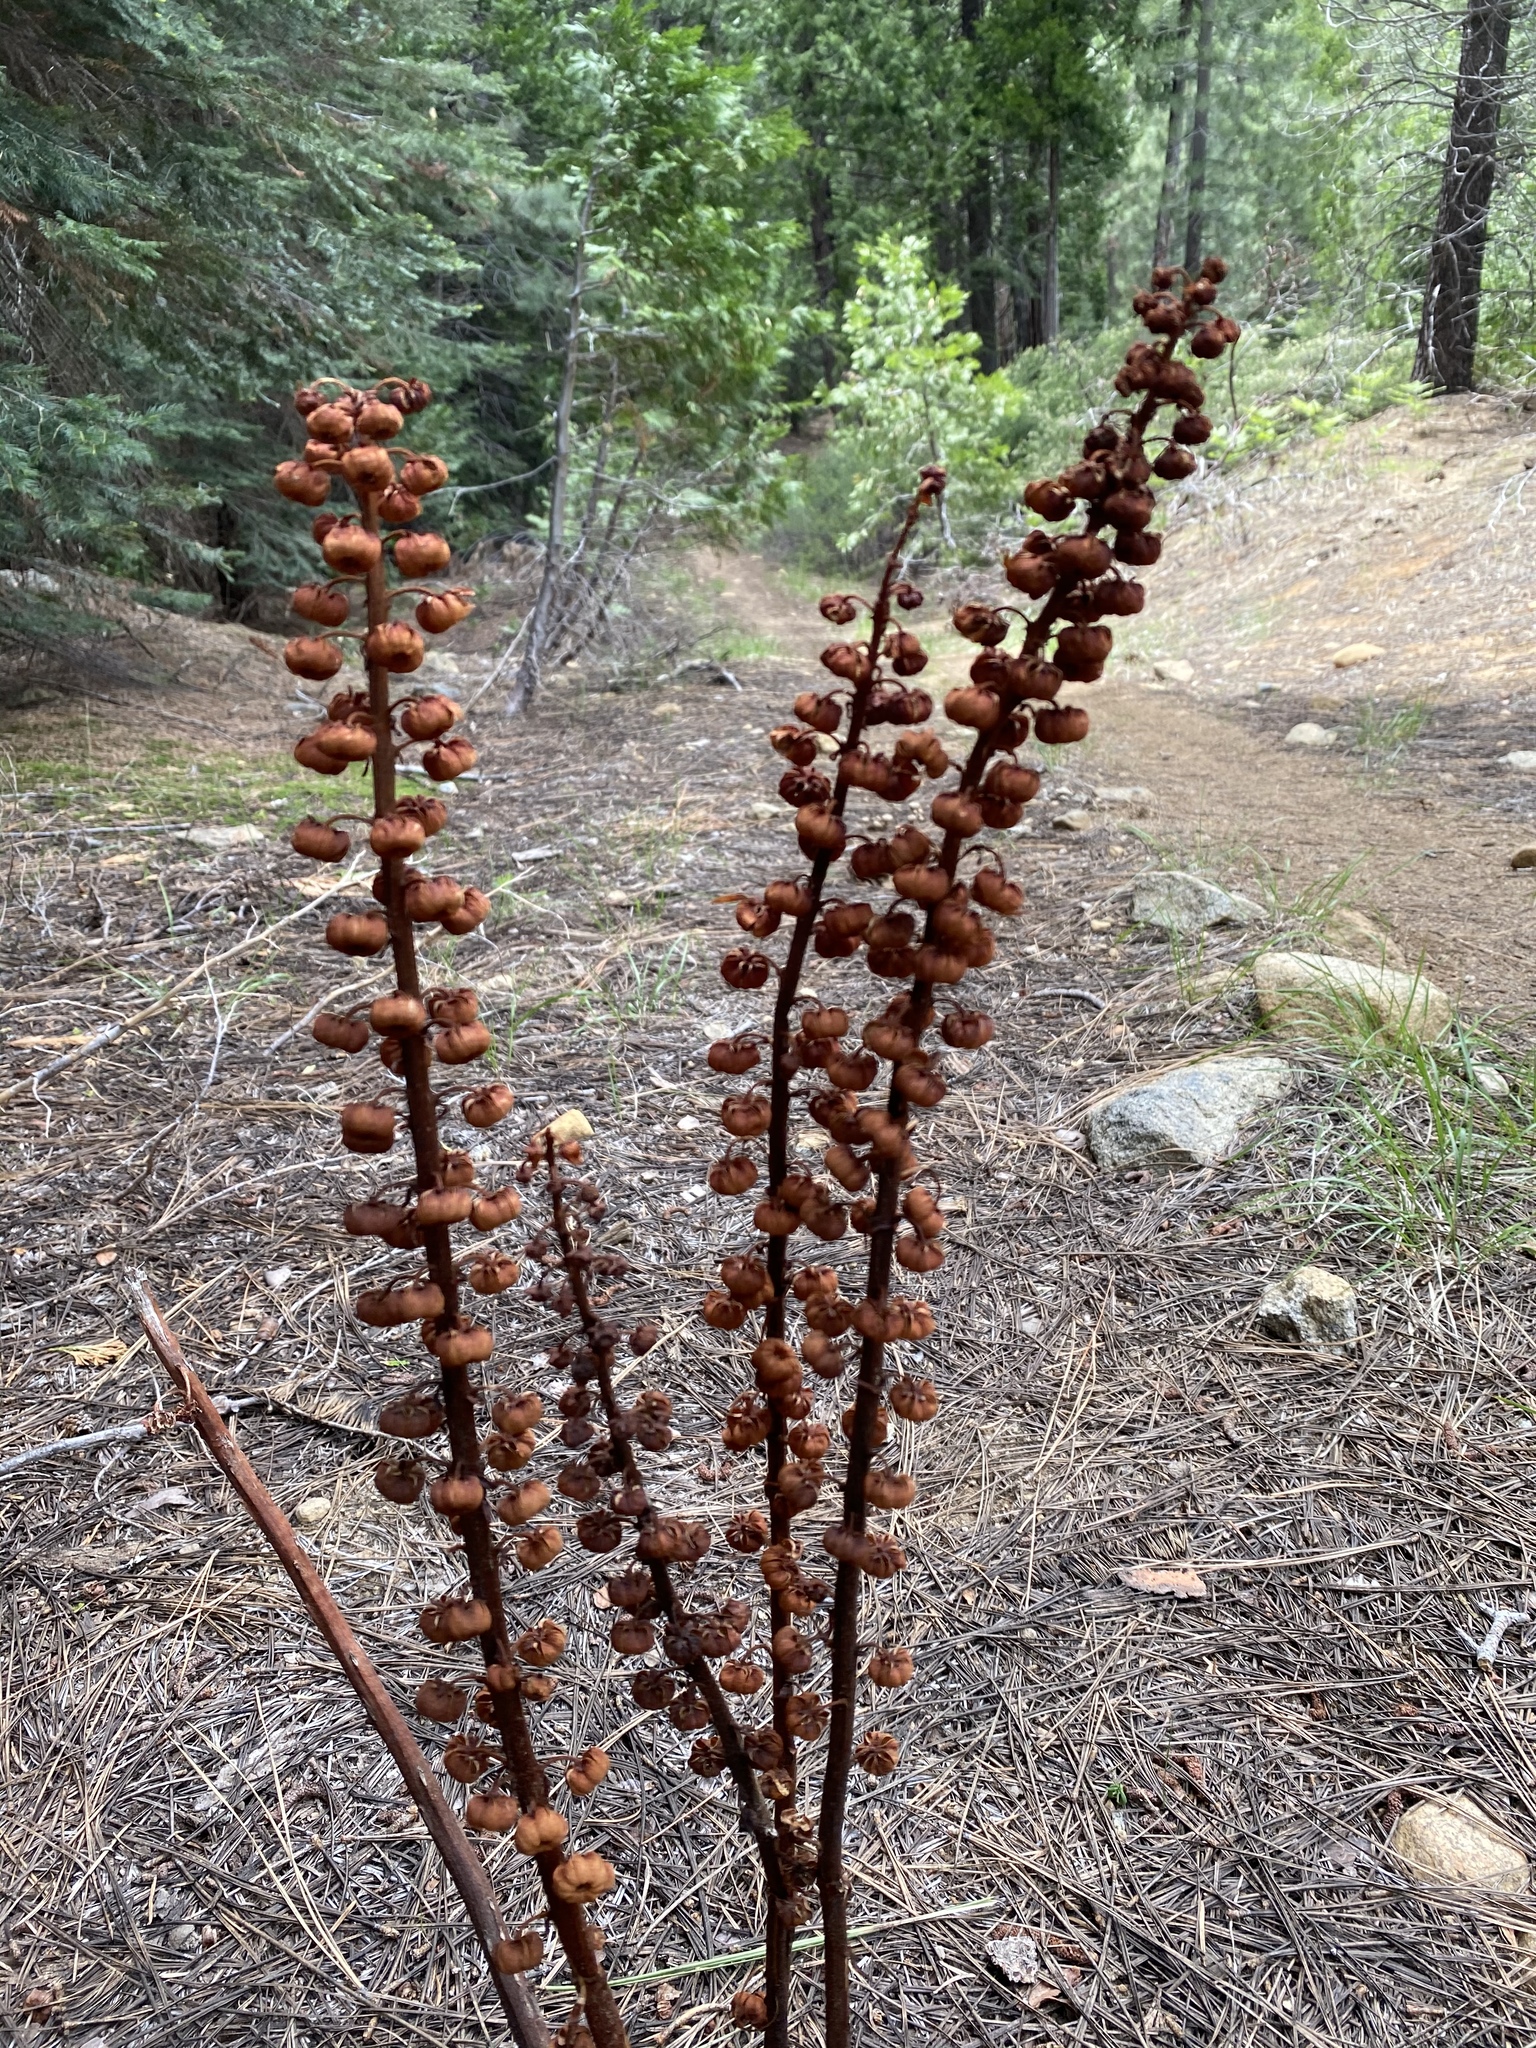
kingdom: Plantae
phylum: Tracheophyta
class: Magnoliopsida
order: Ericales
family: Ericaceae
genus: Pterospora
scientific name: Pterospora andromedea
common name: Giant bird's-nest
